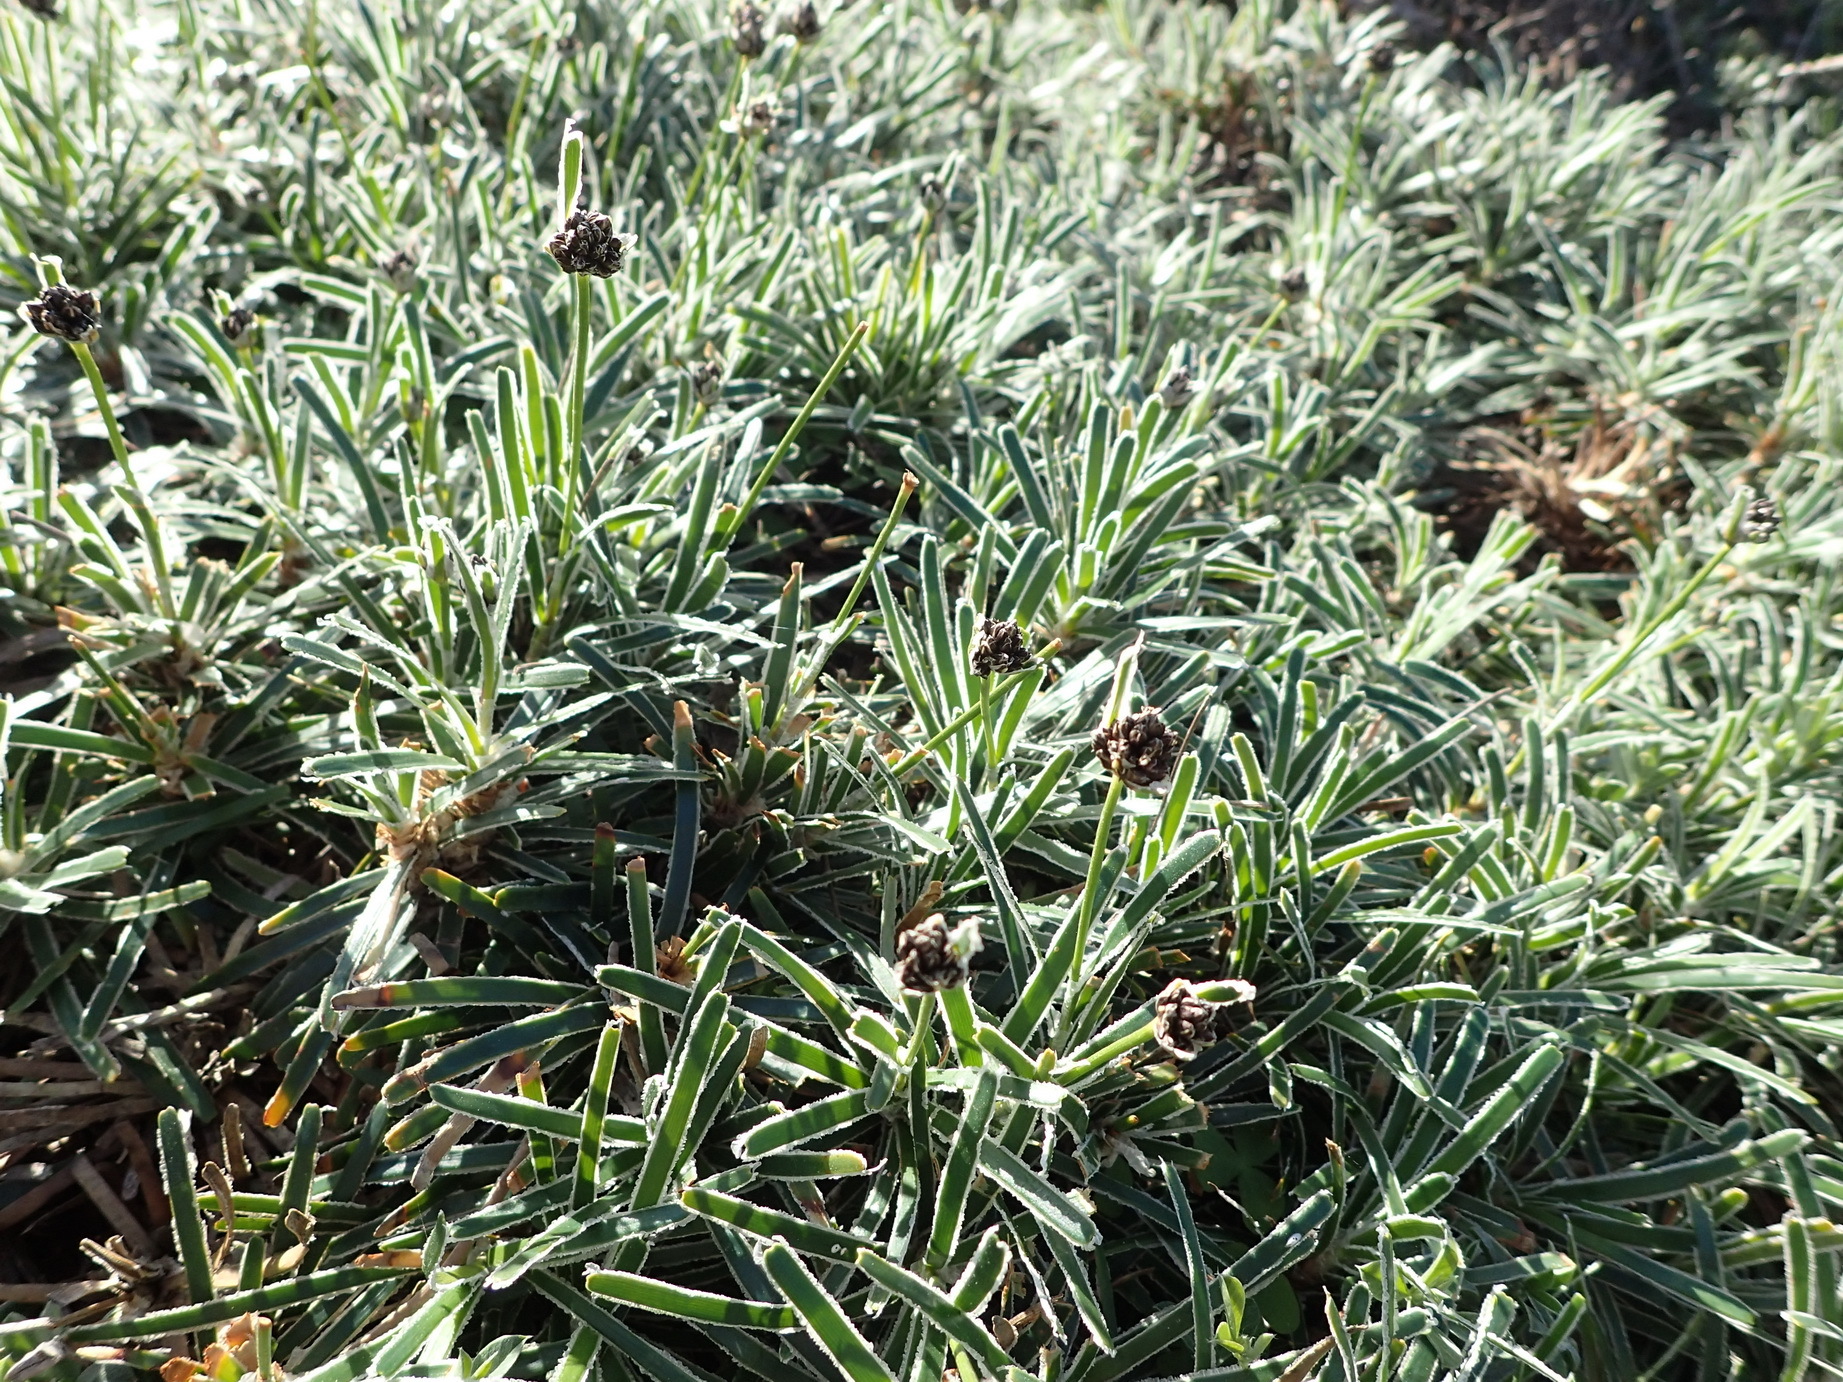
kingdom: Plantae
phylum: Tracheophyta
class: Liliopsida
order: Poales
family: Cyperaceae
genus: Ficinia
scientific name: Ficinia truncata
